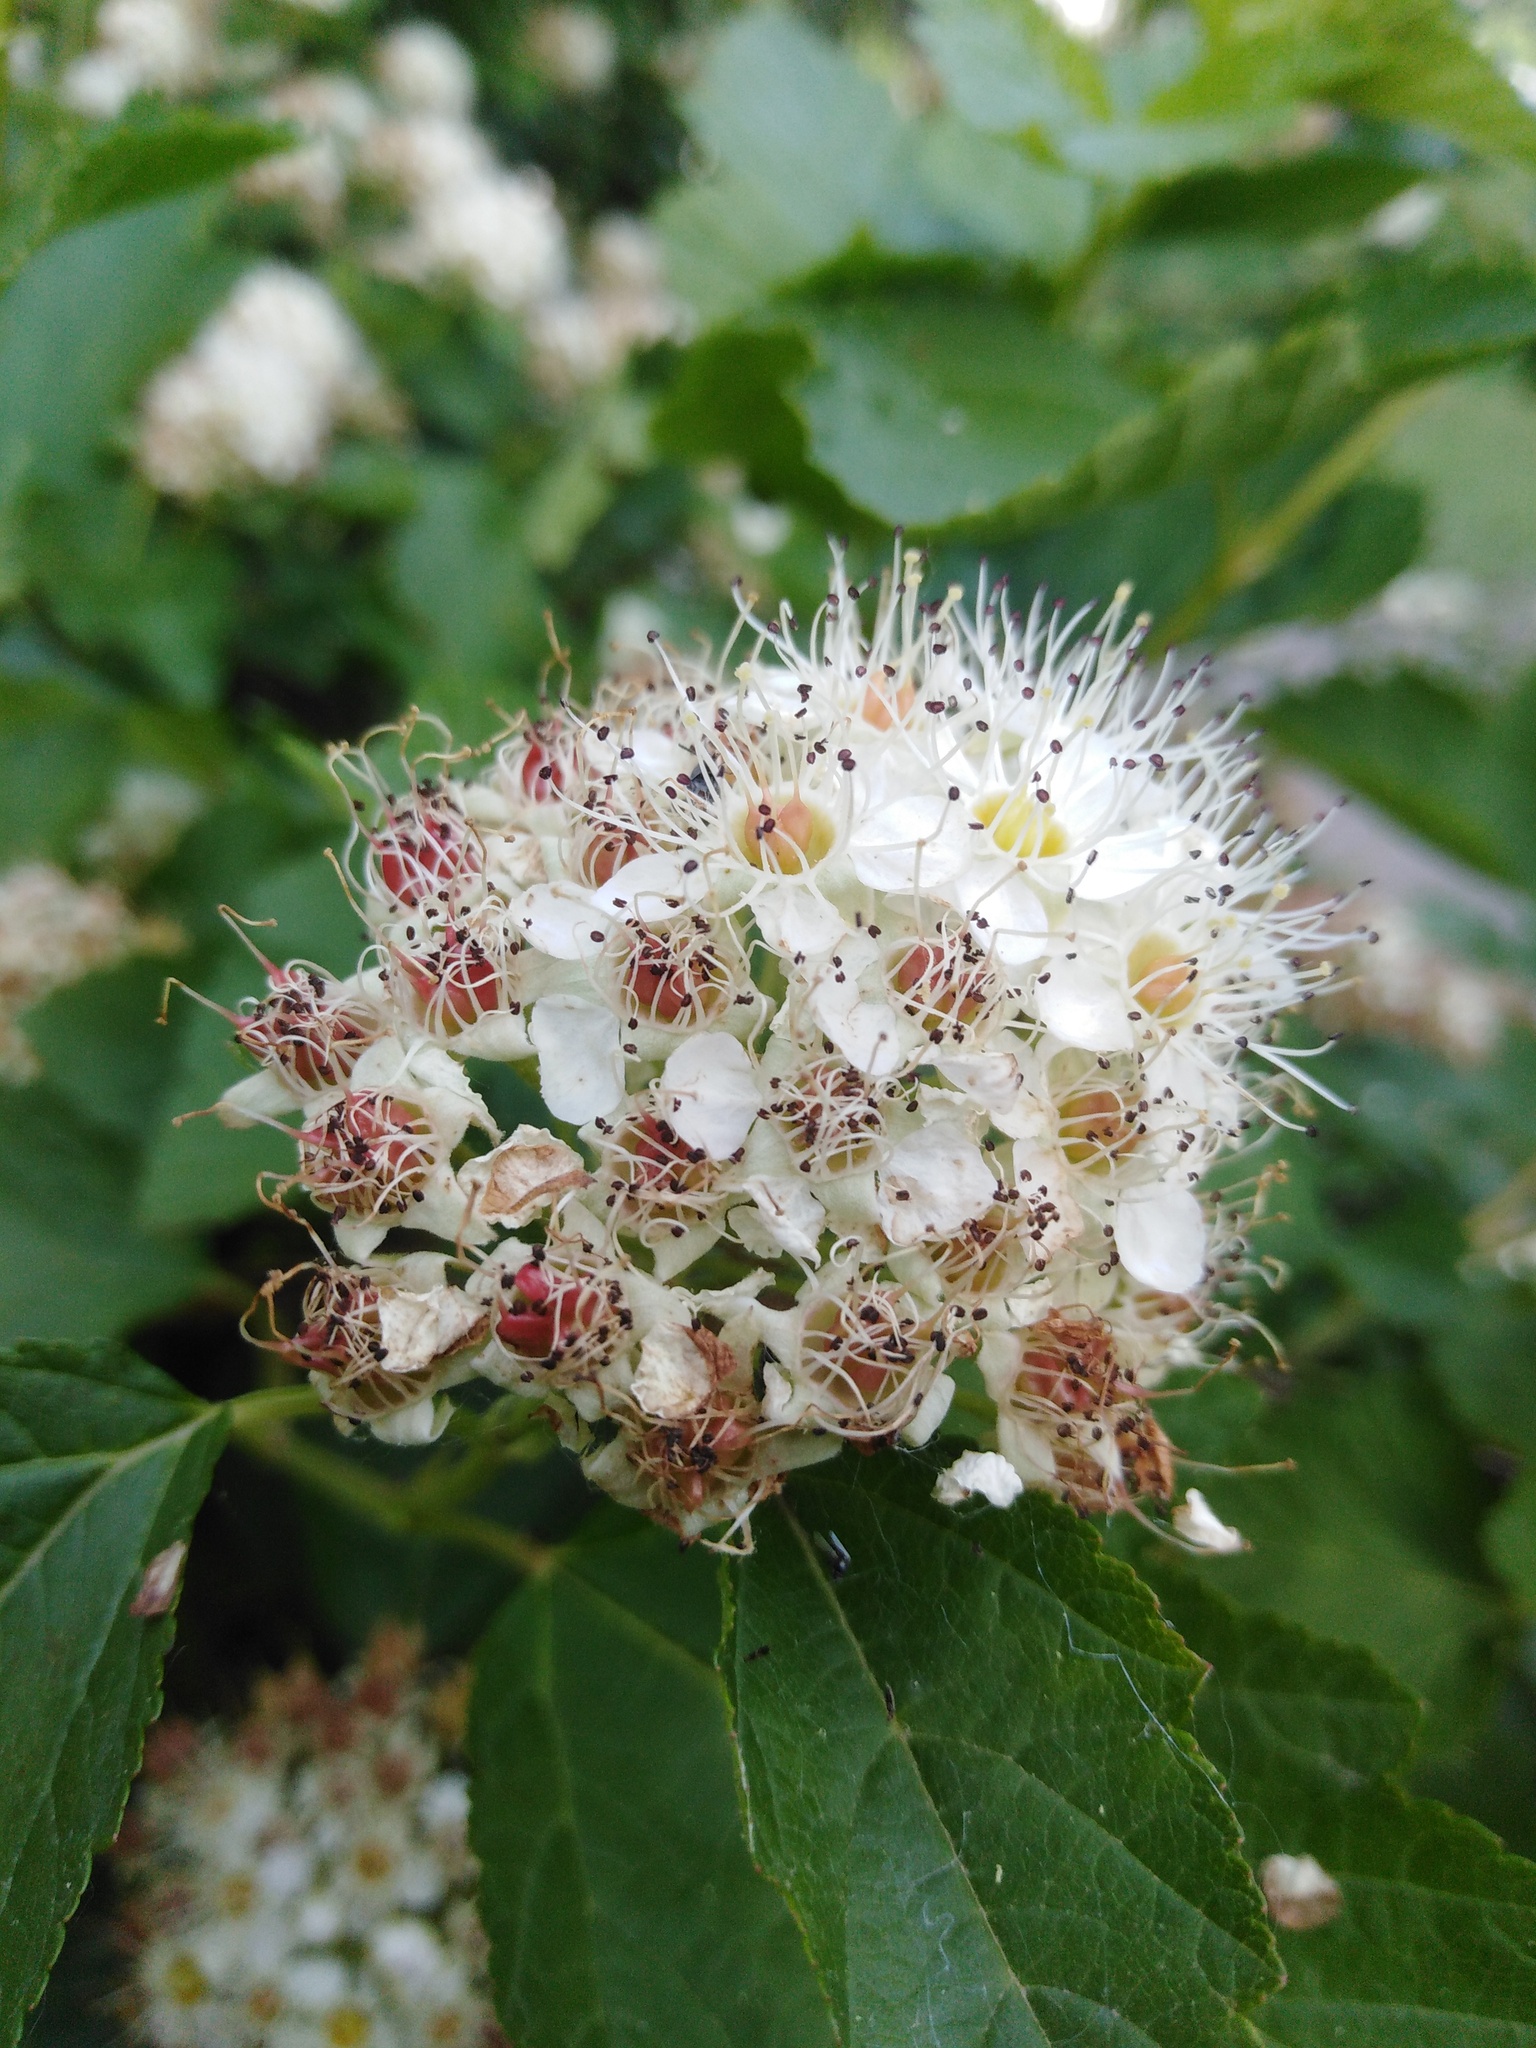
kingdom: Plantae
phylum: Tracheophyta
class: Magnoliopsida
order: Rosales
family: Rosaceae
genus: Physocarpus
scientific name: Physocarpus opulifolius
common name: Ninebark
